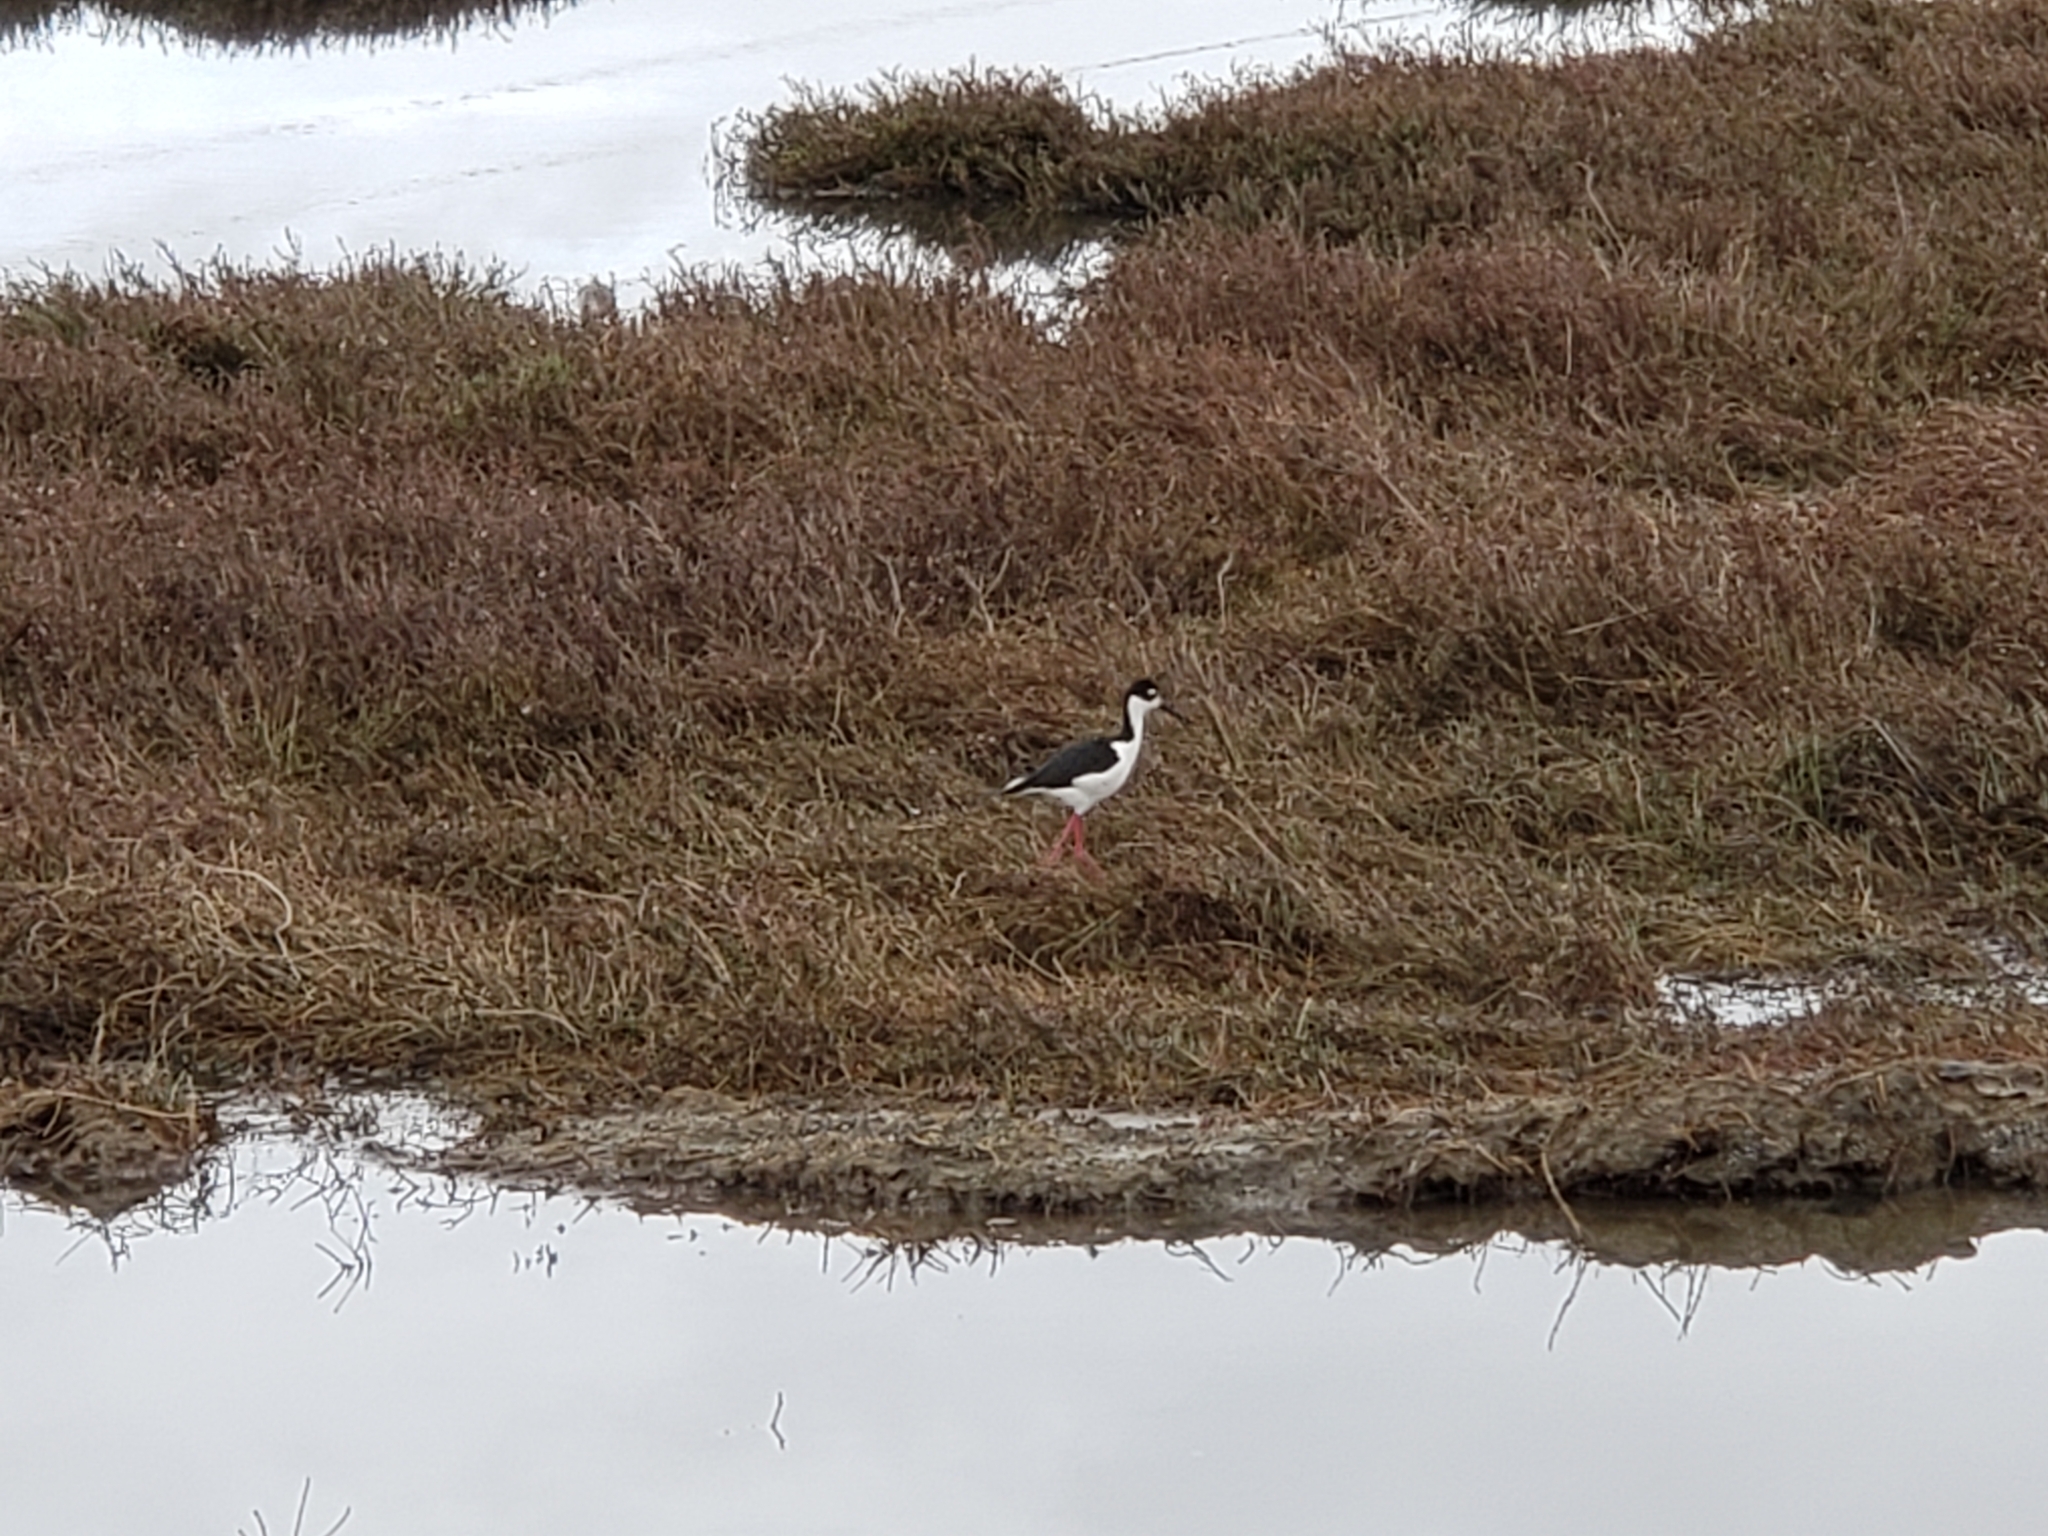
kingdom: Animalia
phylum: Chordata
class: Aves
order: Charadriiformes
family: Recurvirostridae
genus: Himantopus
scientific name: Himantopus mexicanus
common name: Black-necked stilt
